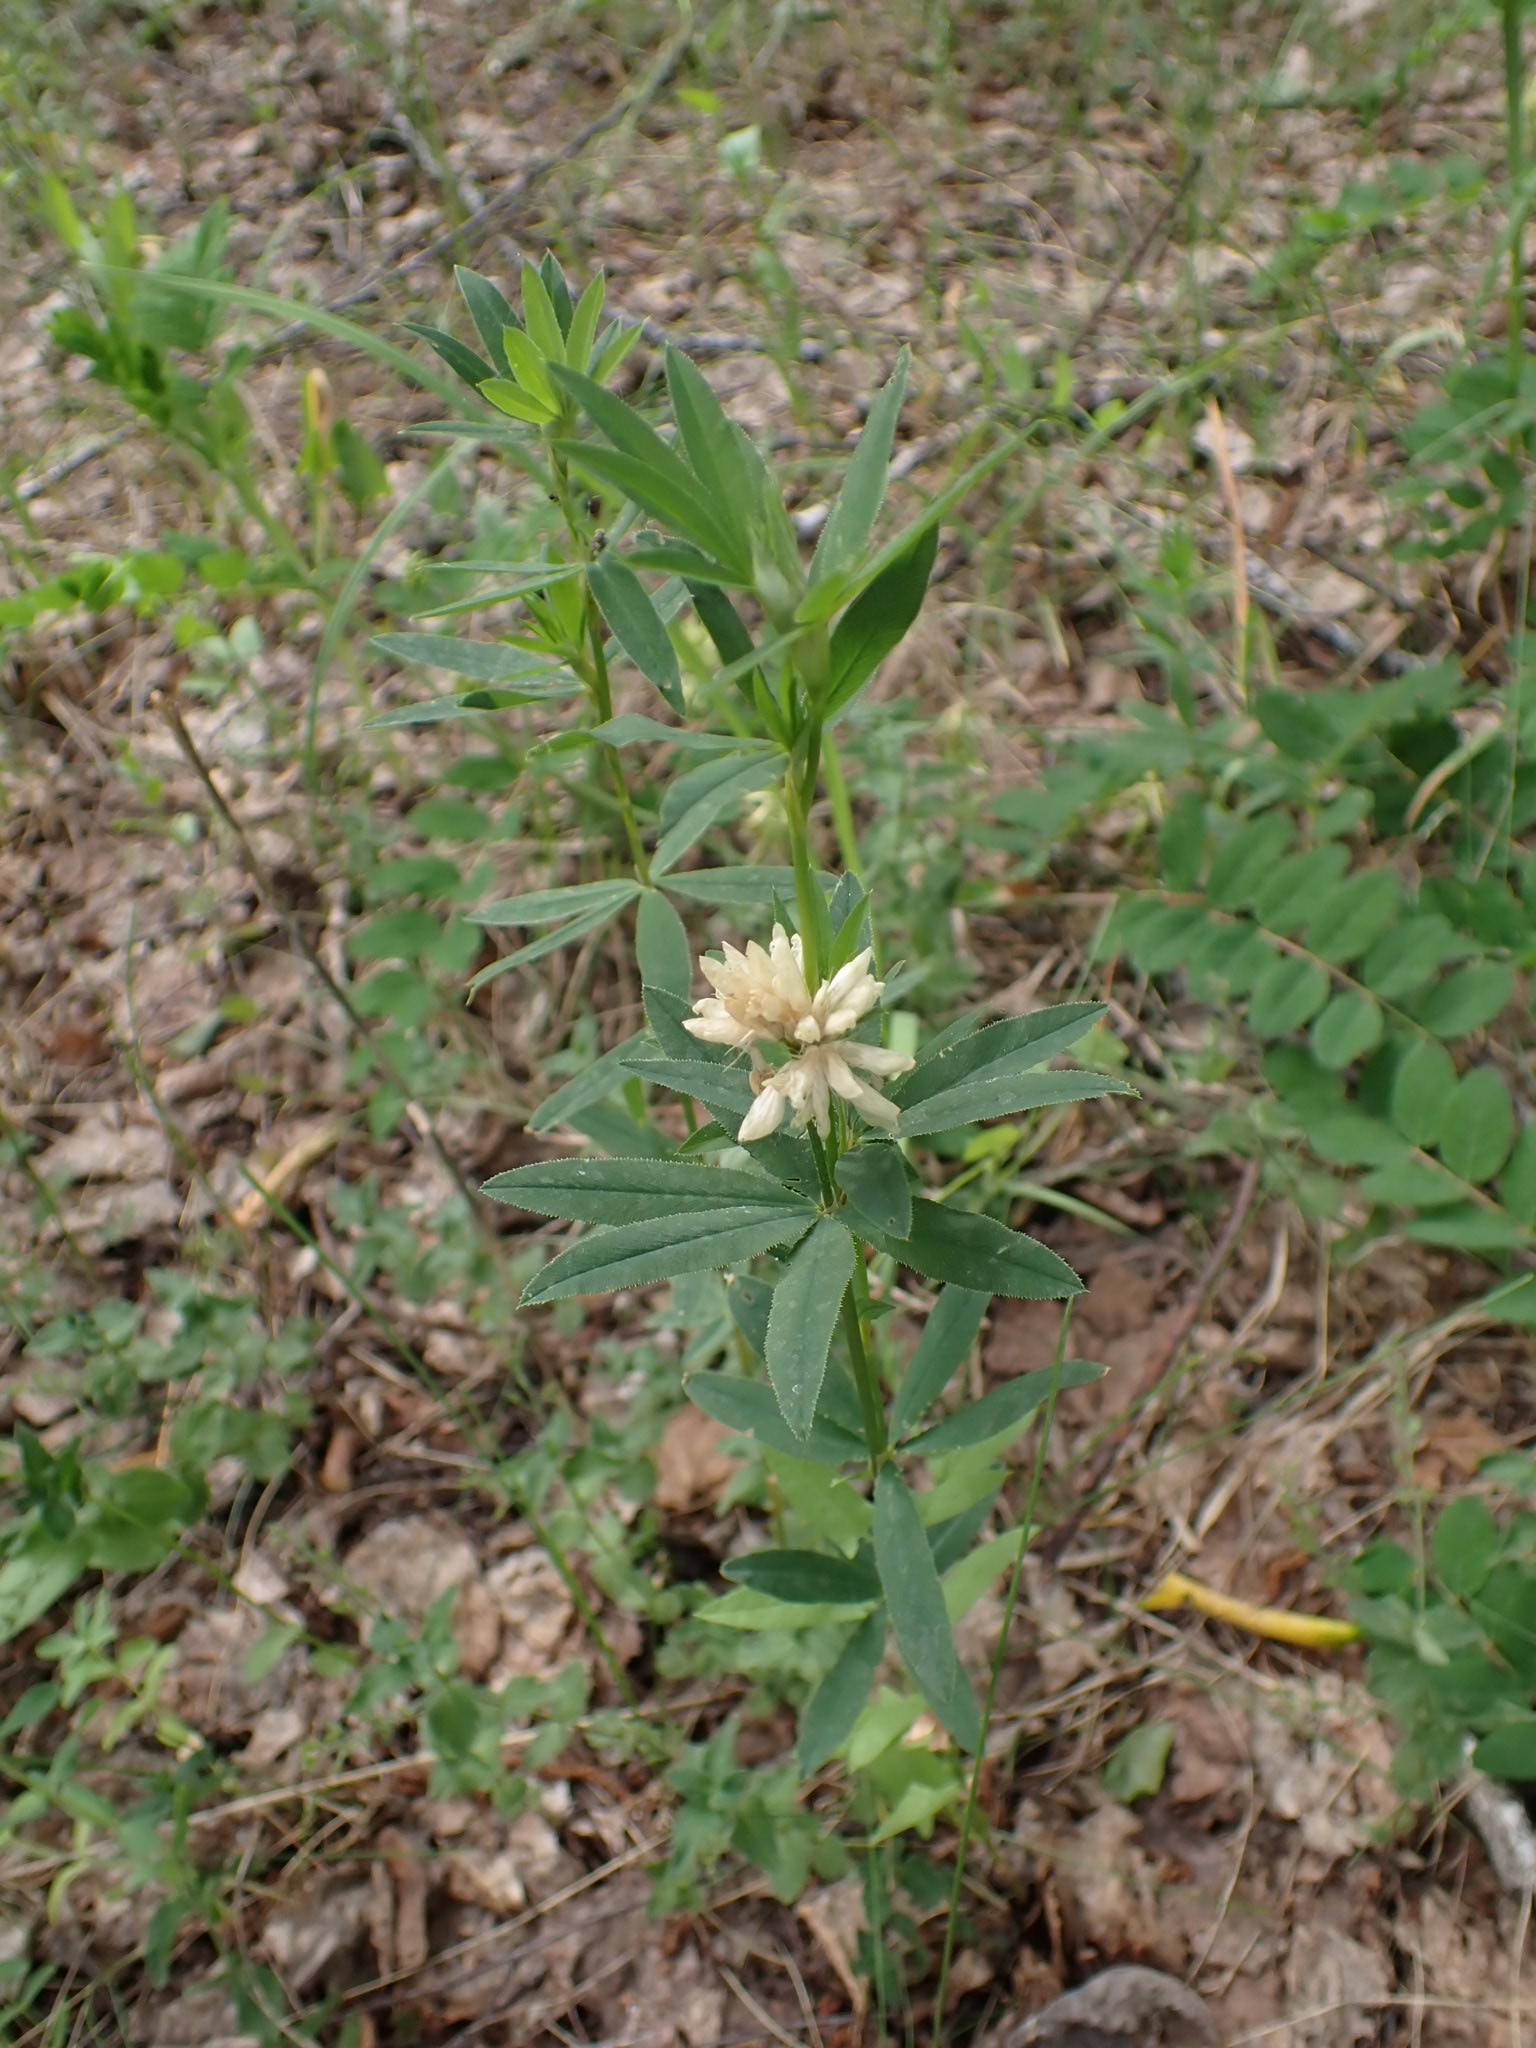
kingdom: Plantae
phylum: Tracheophyta
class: Magnoliopsida
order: Fabales
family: Fabaceae
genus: Trifolium
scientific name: Trifolium lupinaster
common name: Lupine clover
